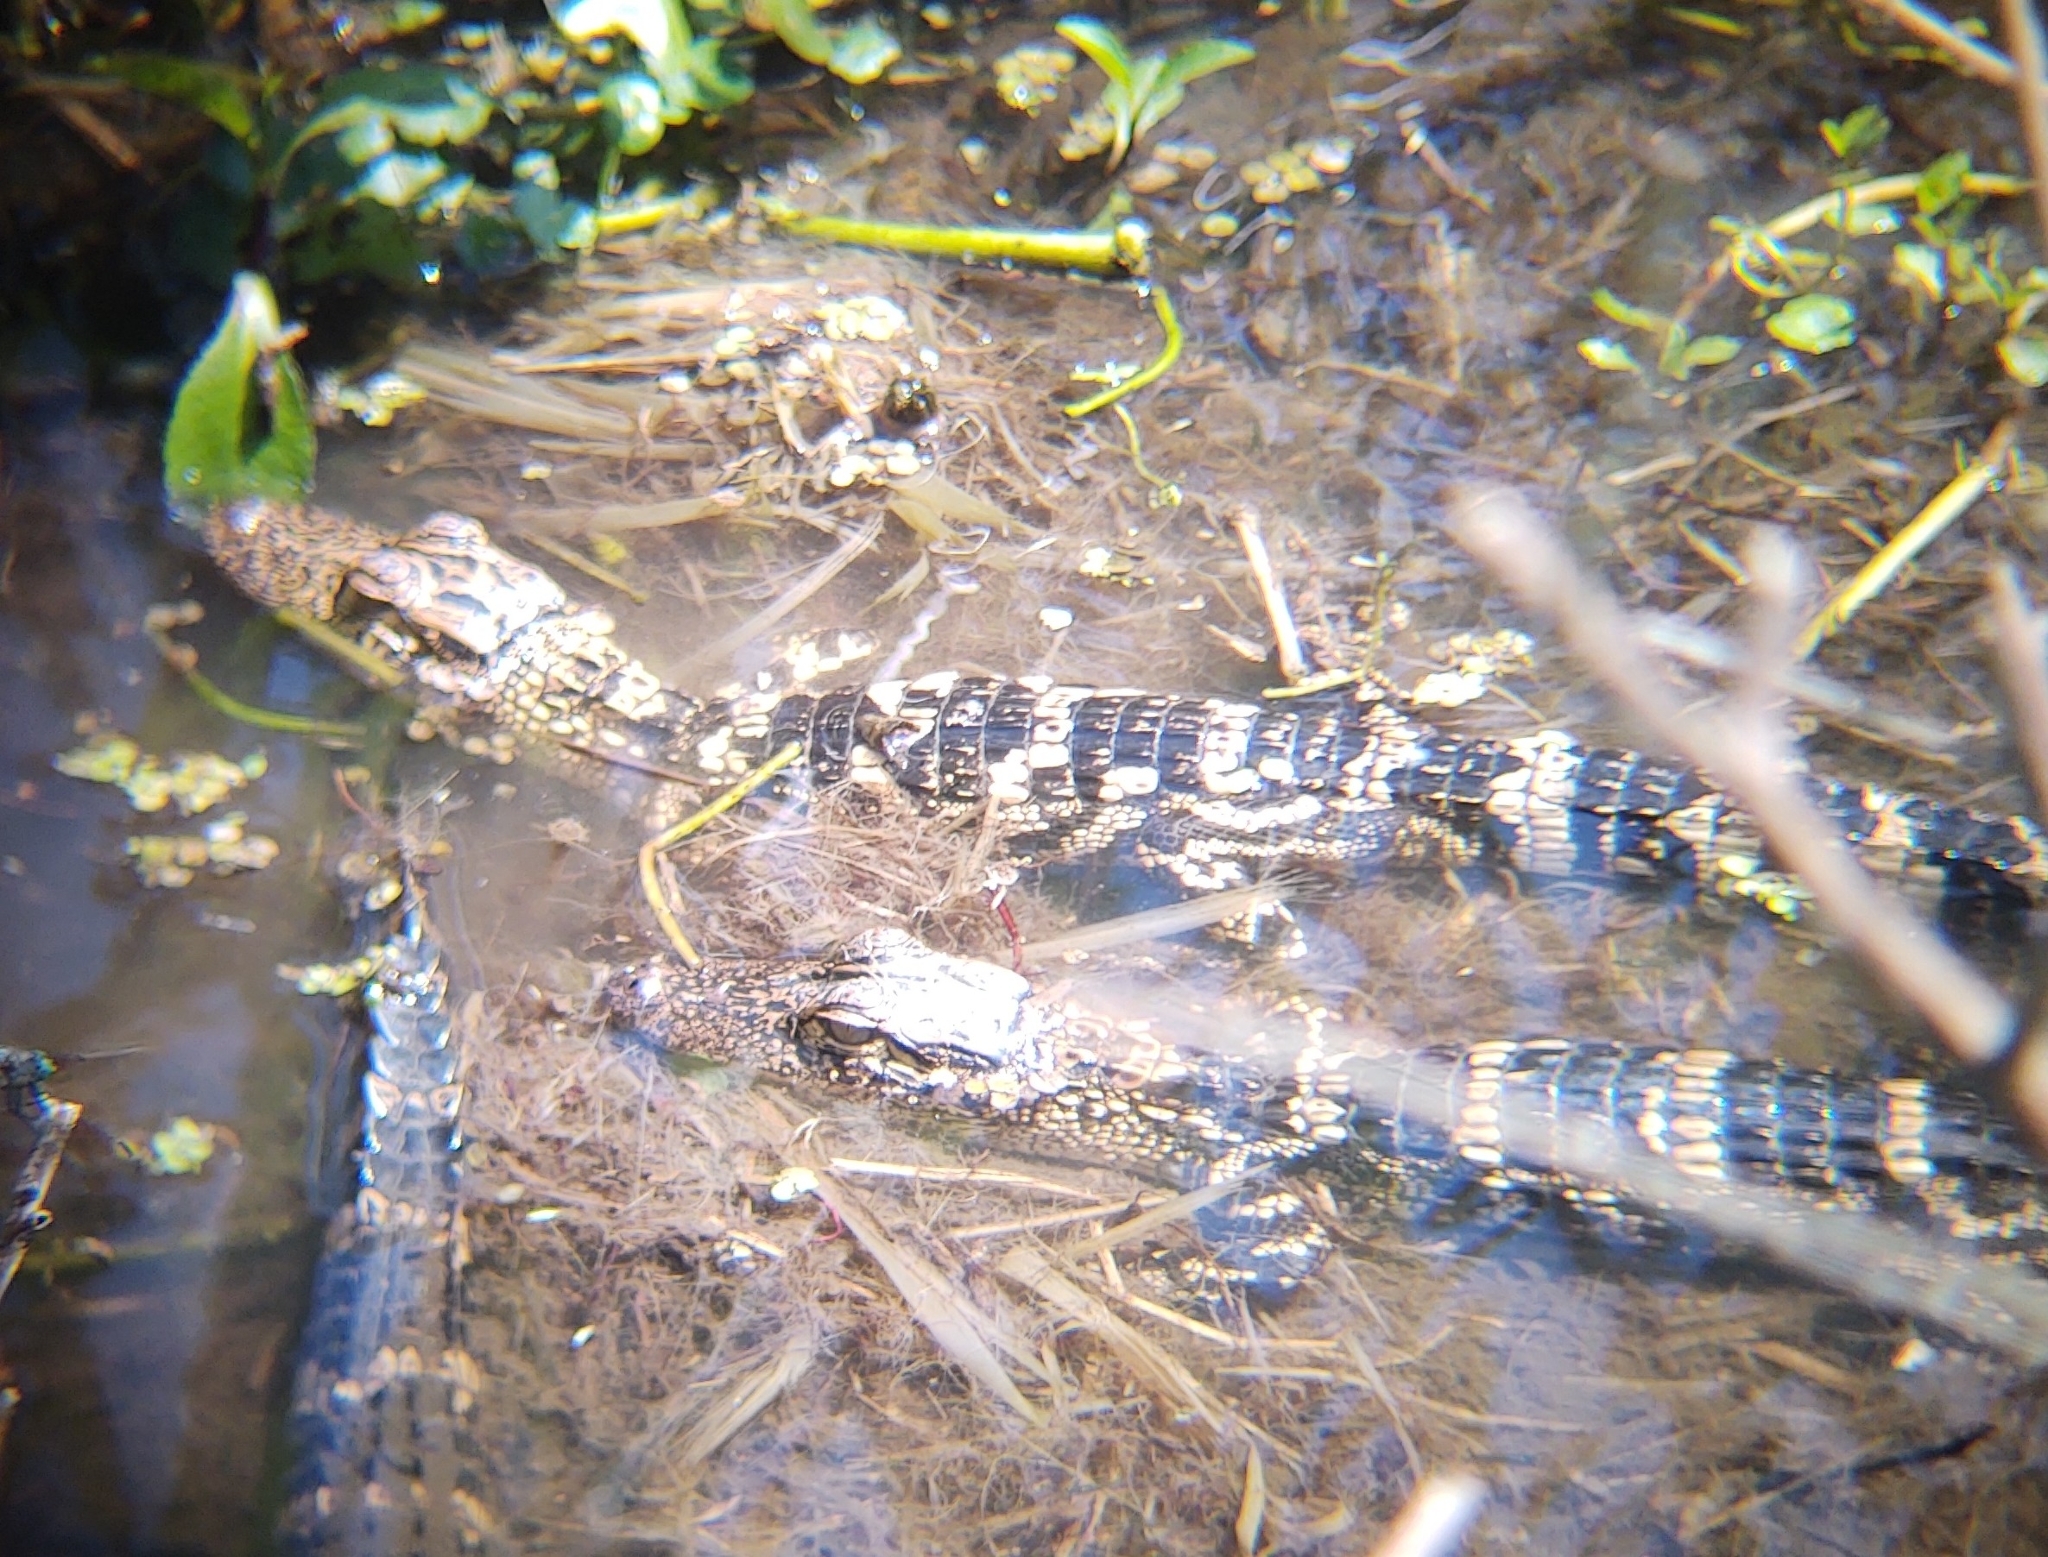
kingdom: Animalia
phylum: Chordata
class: Crocodylia
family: Alligatoridae
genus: Alligator
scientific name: Alligator mississippiensis
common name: American alligator
